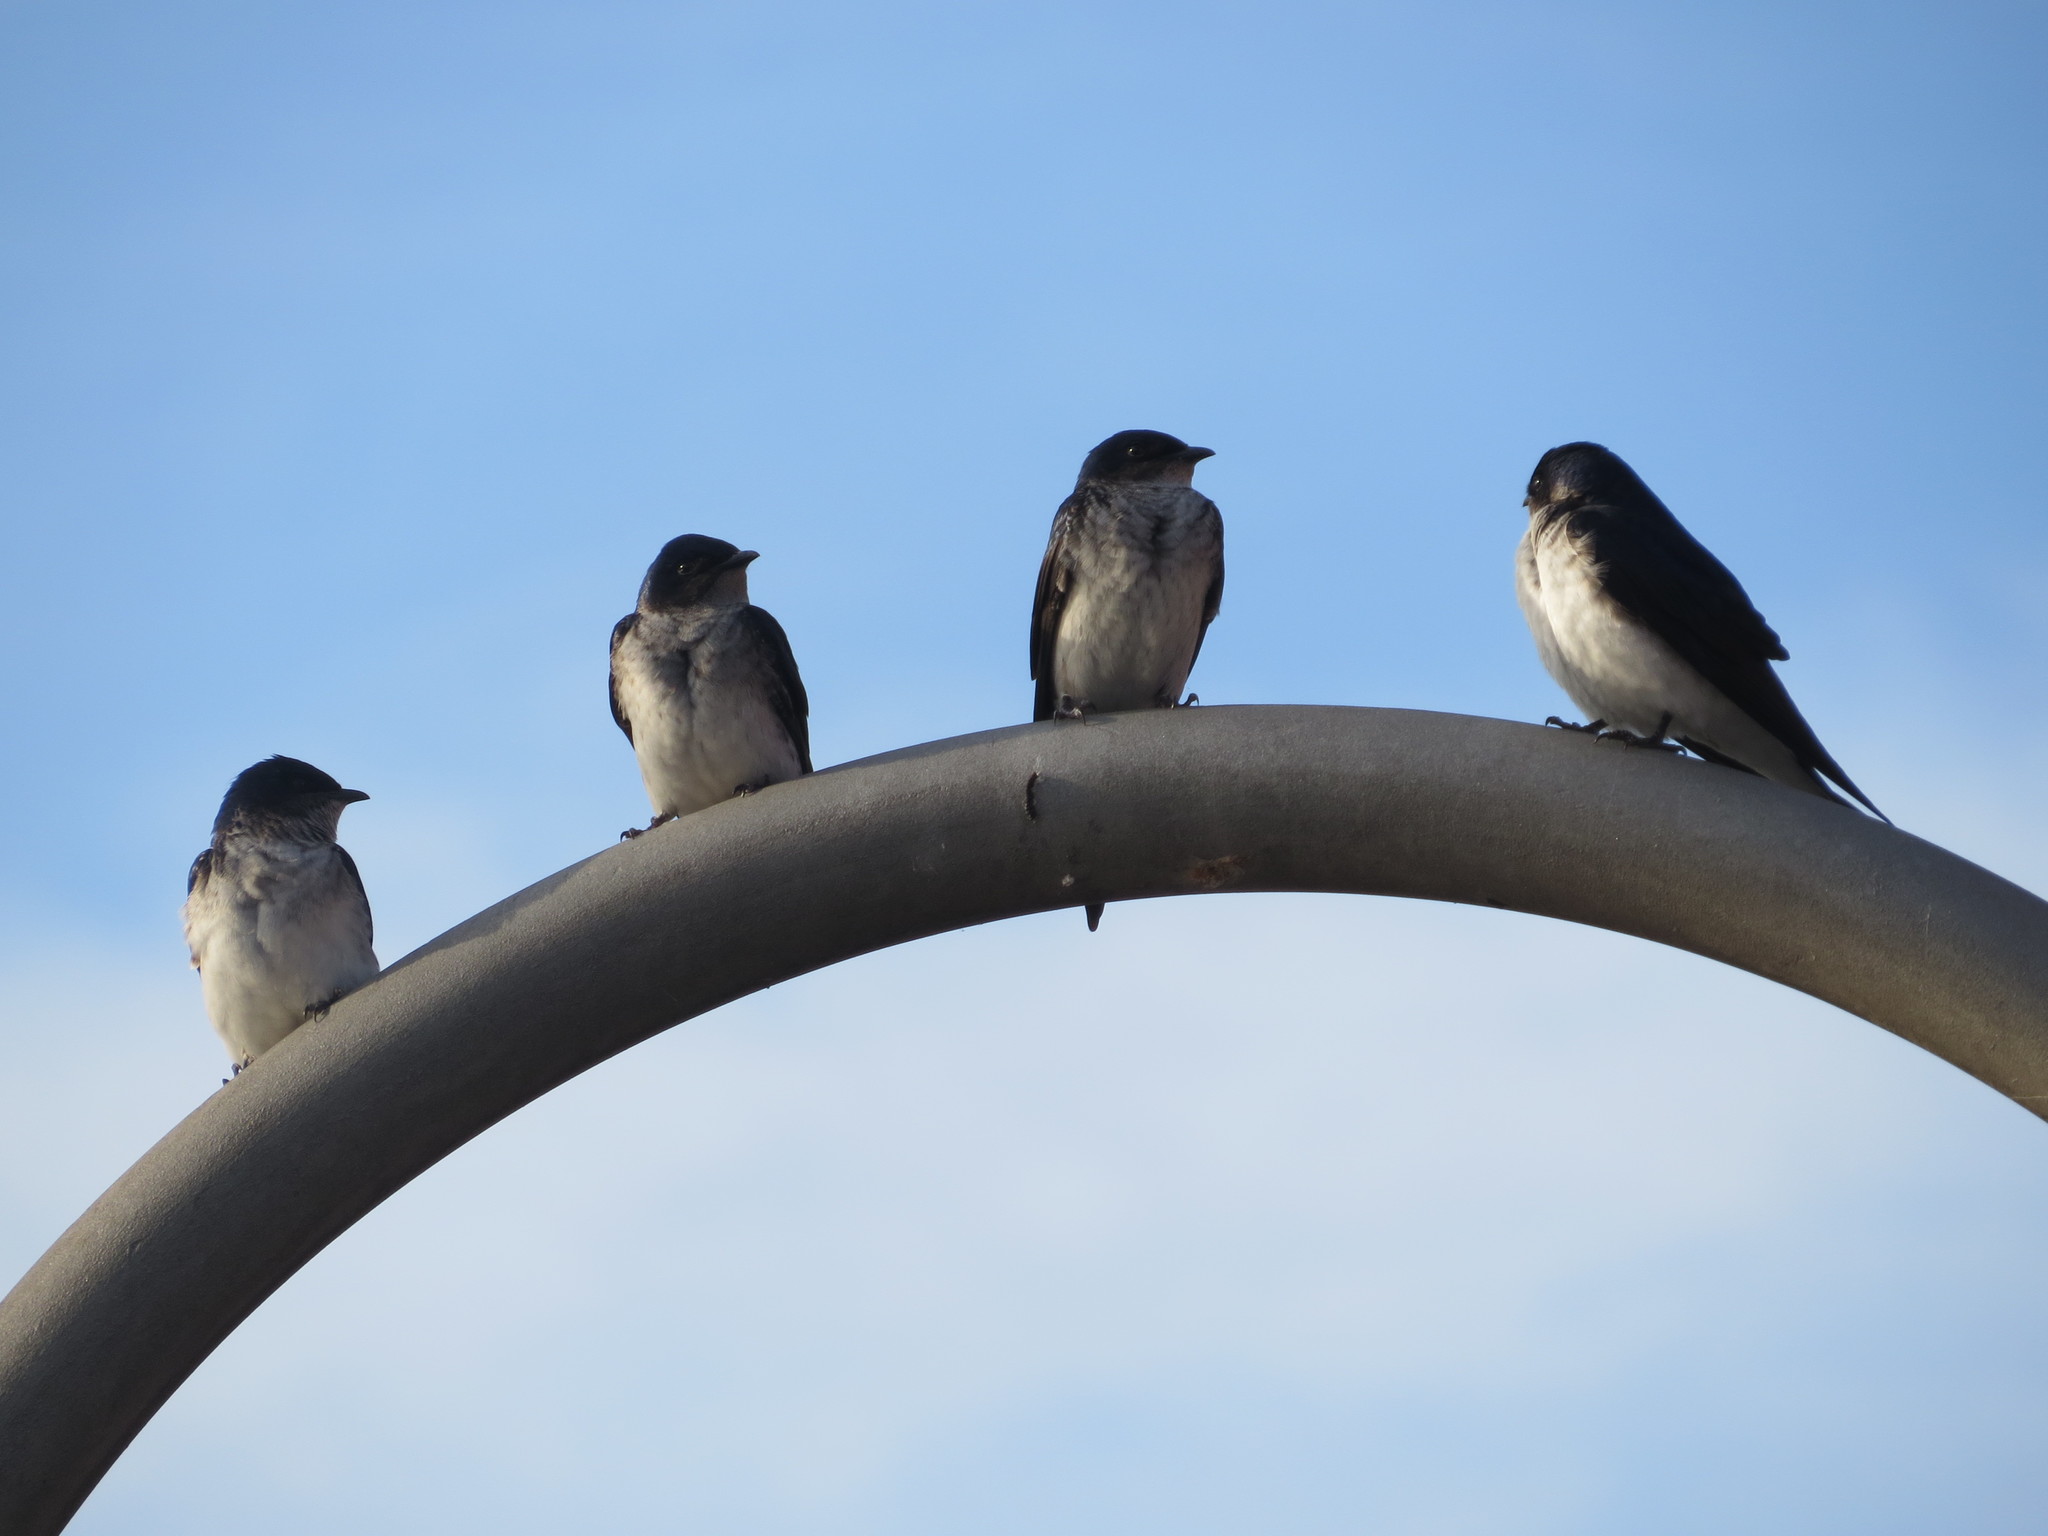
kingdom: Animalia
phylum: Chordata
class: Aves
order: Passeriformes
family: Hirundinidae
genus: Progne
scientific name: Progne chalybea
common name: Grey-breasted martin
